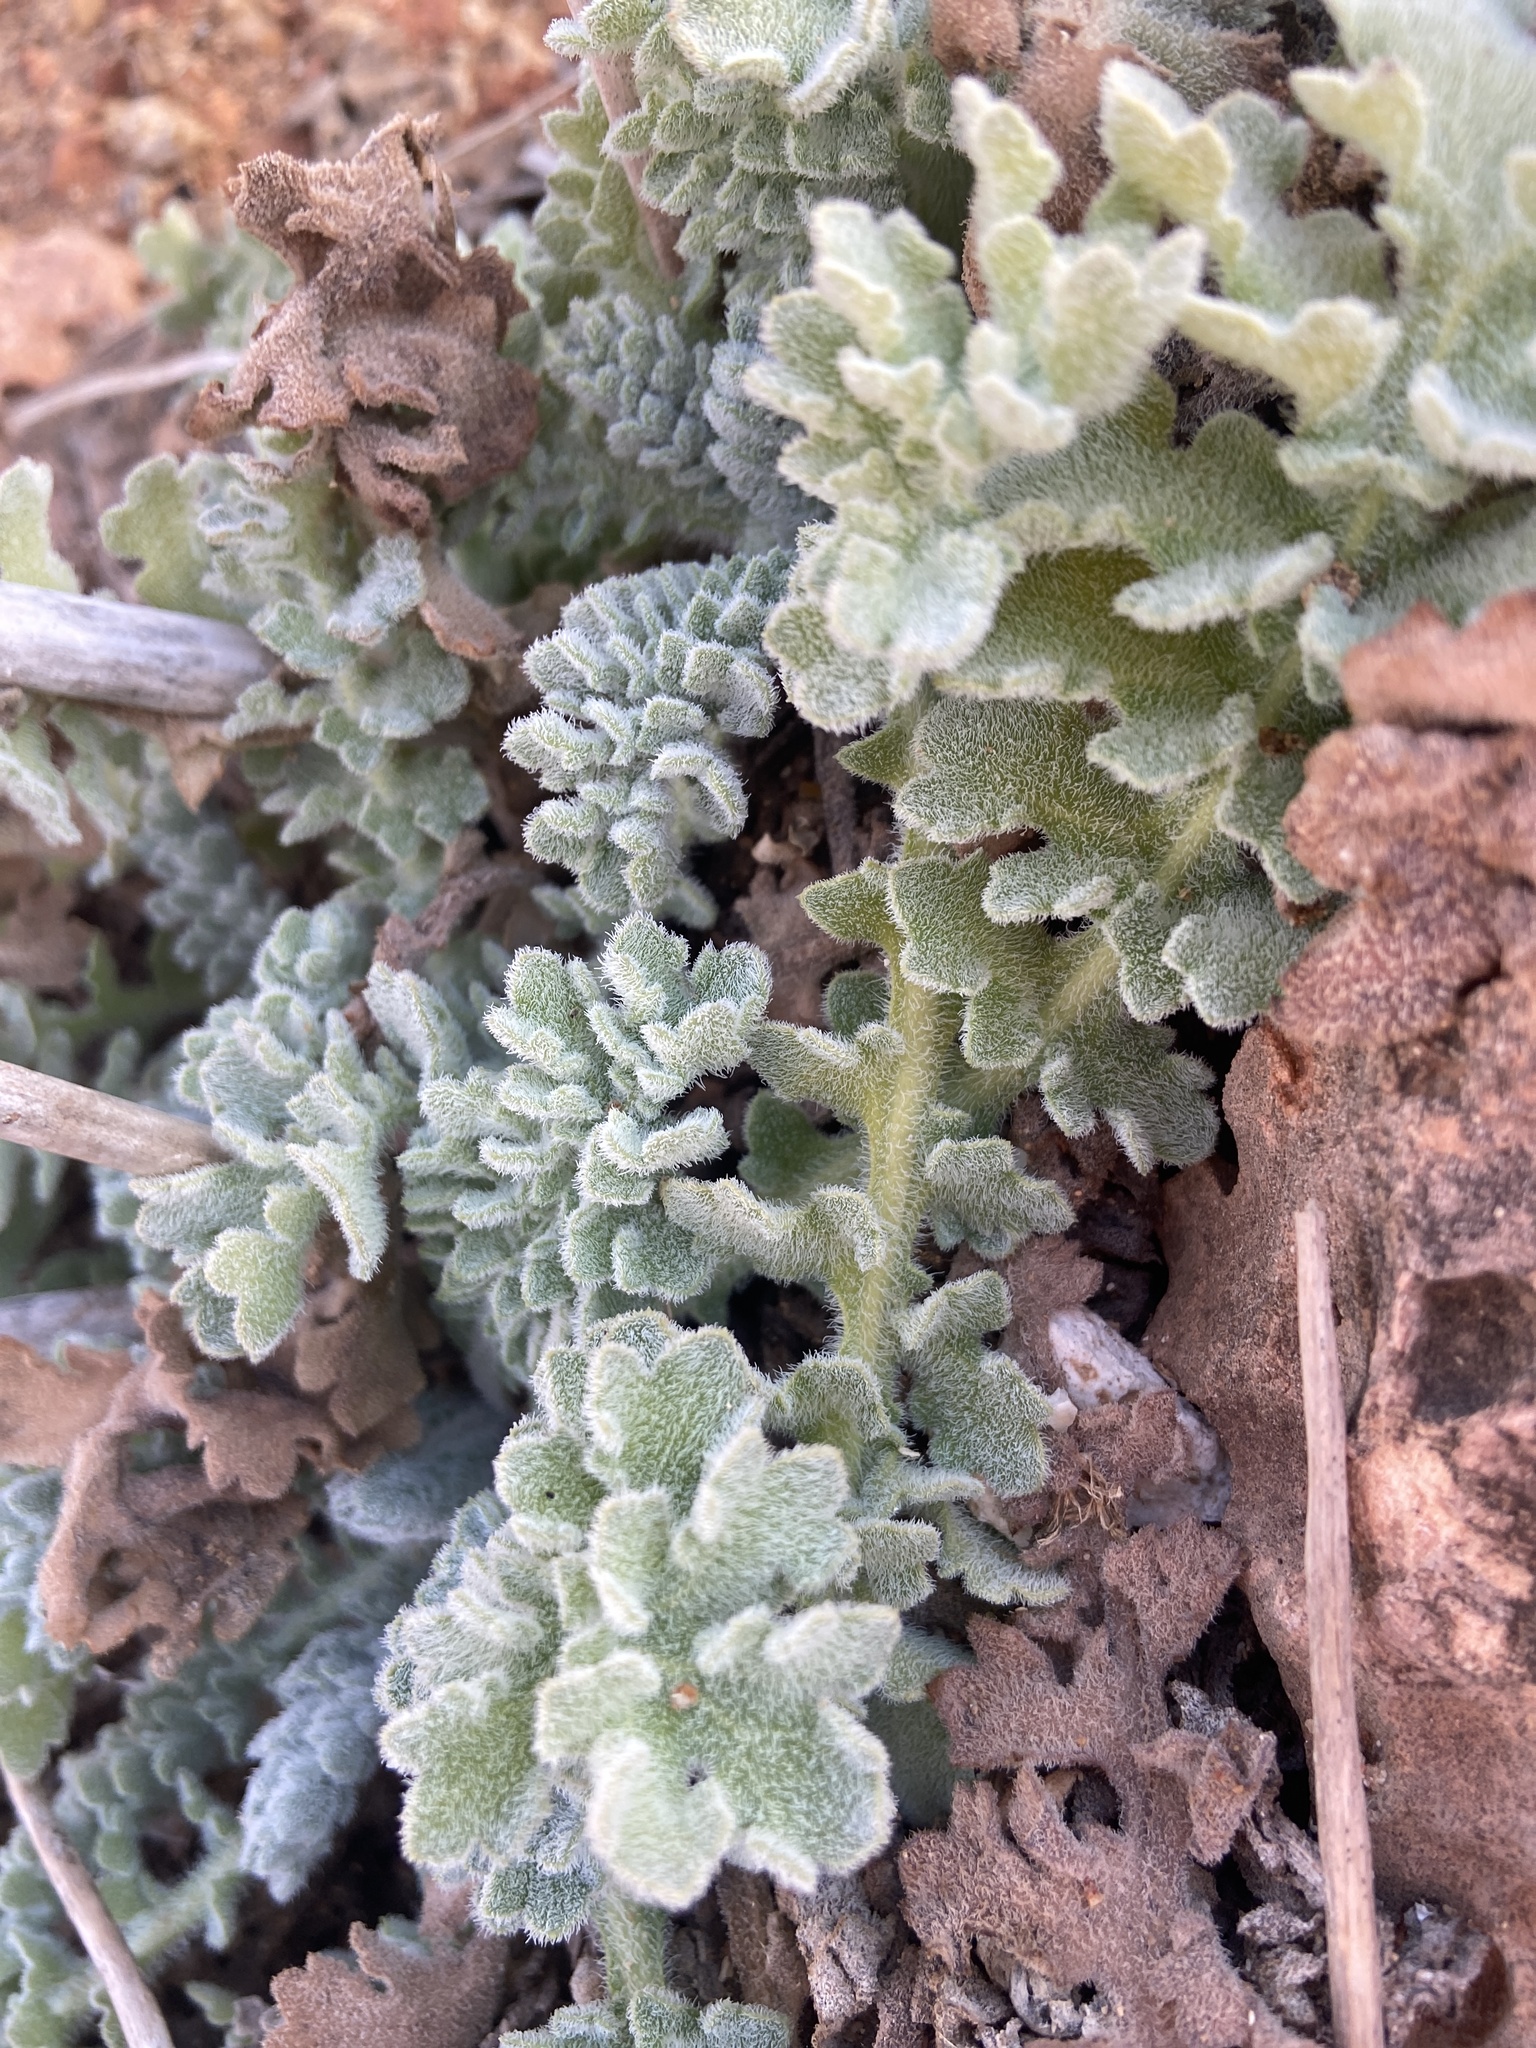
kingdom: Plantae
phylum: Tracheophyta
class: Magnoliopsida
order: Ranunculales
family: Papaveraceae
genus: Glaucium
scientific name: Glaucium flavum
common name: Yellow horned-poppy
